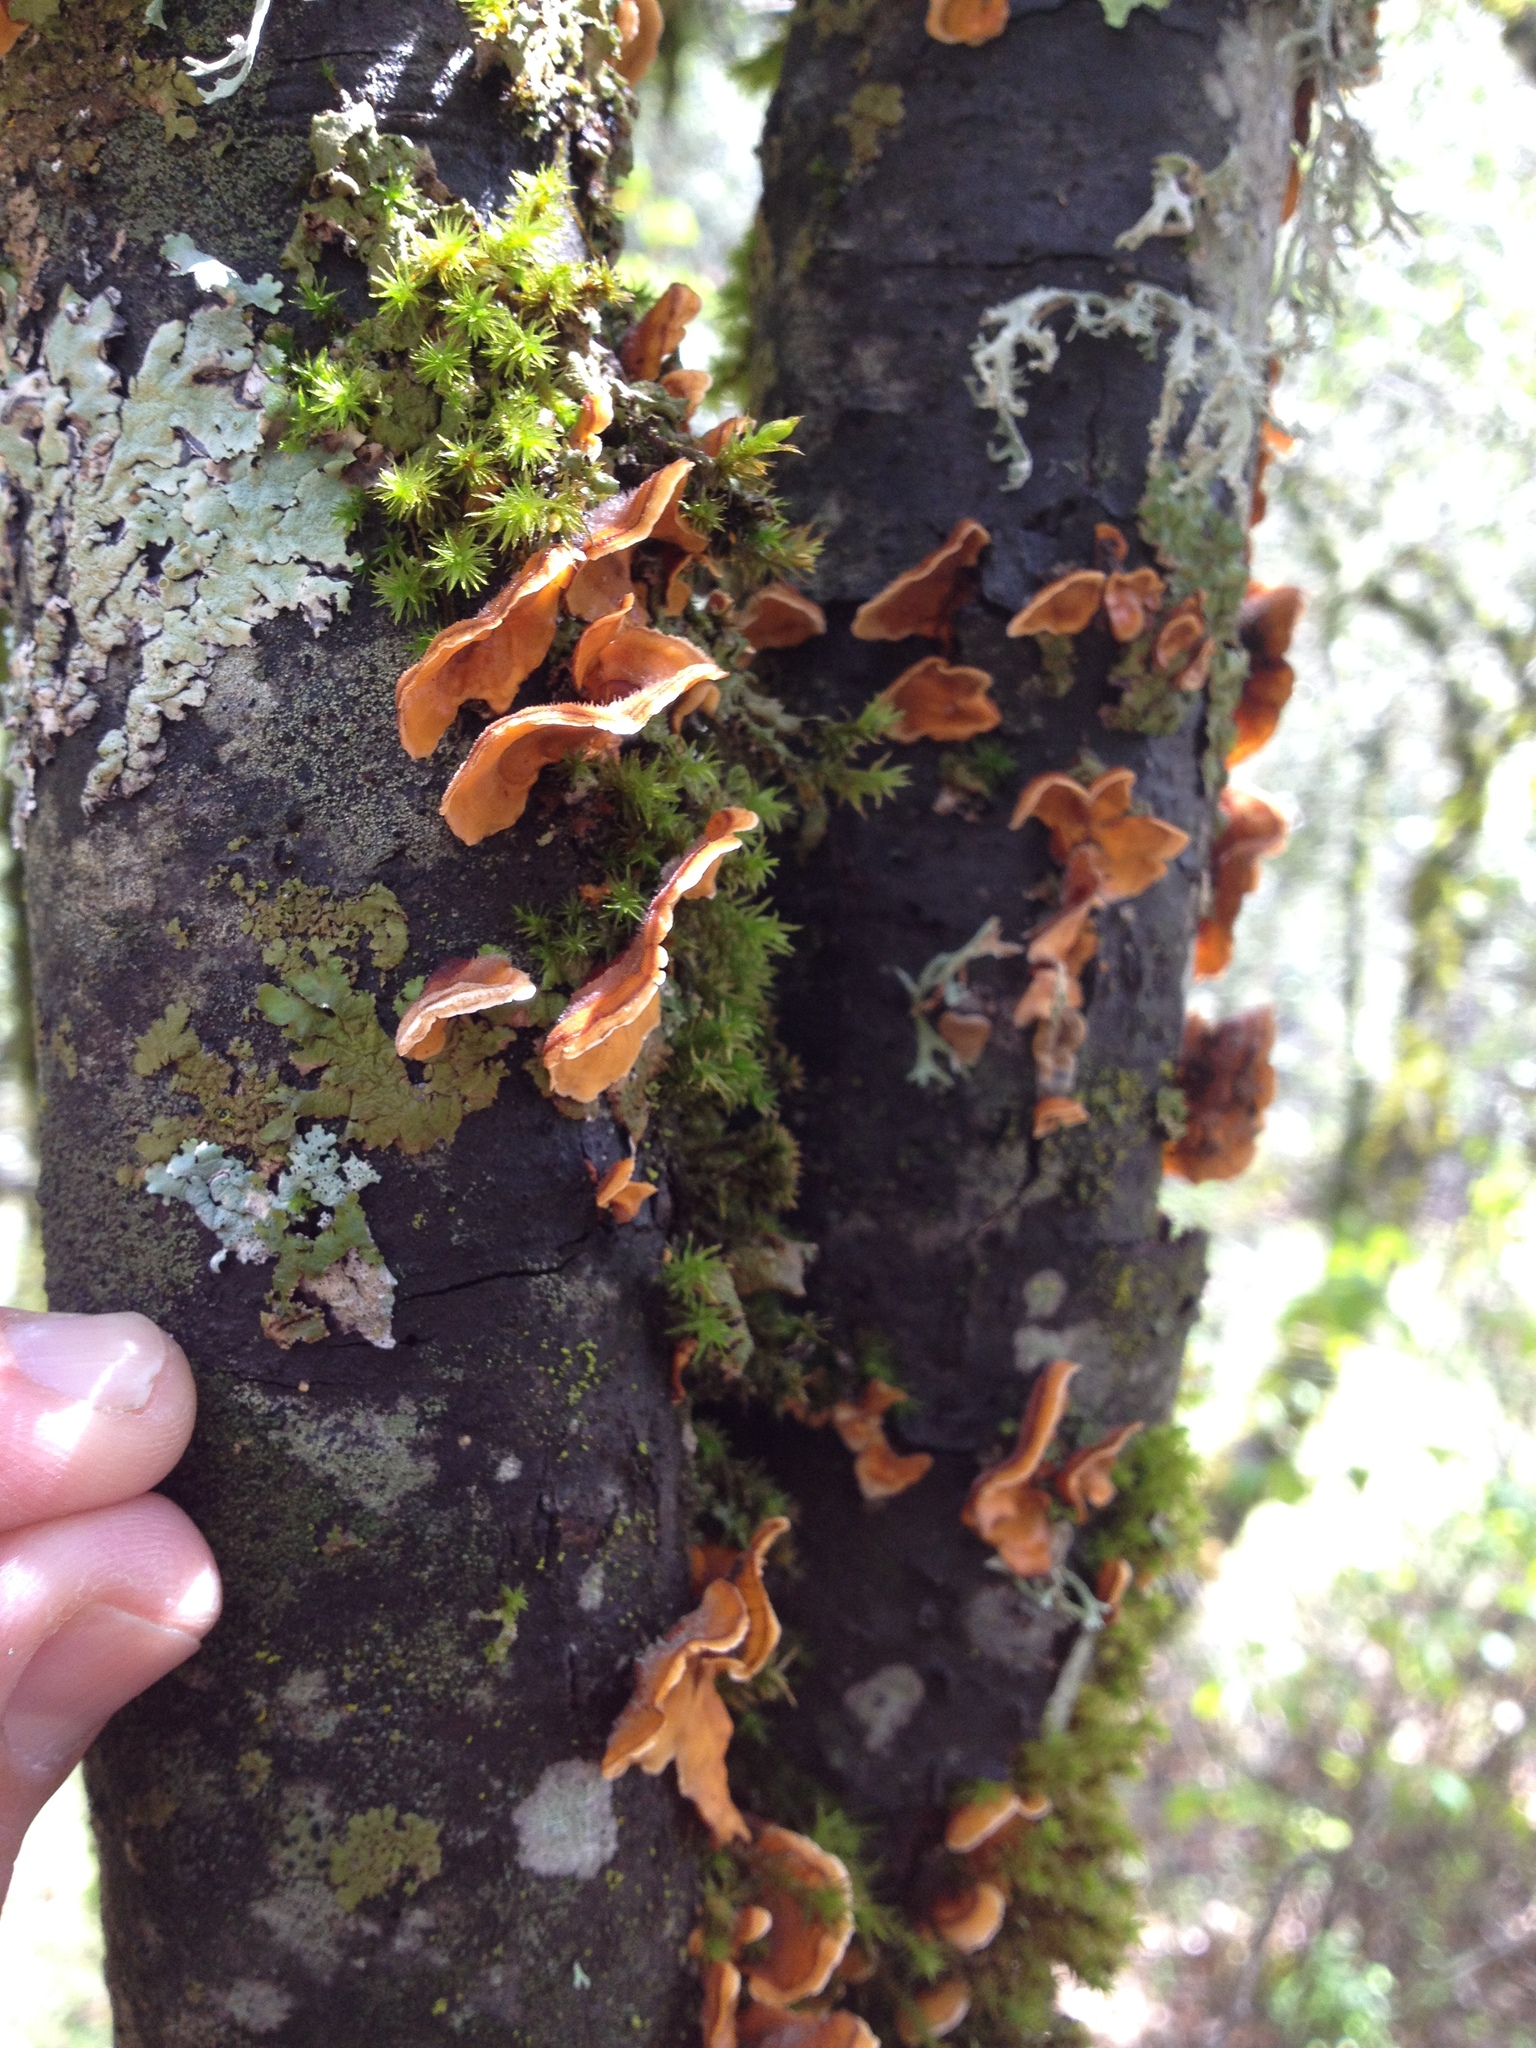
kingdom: Fungi
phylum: Basidiomycota
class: Agaricomycetes
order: Russulales
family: Stereaceae
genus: Stereum
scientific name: Stereum hirsutum
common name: Hairy curtain crust
